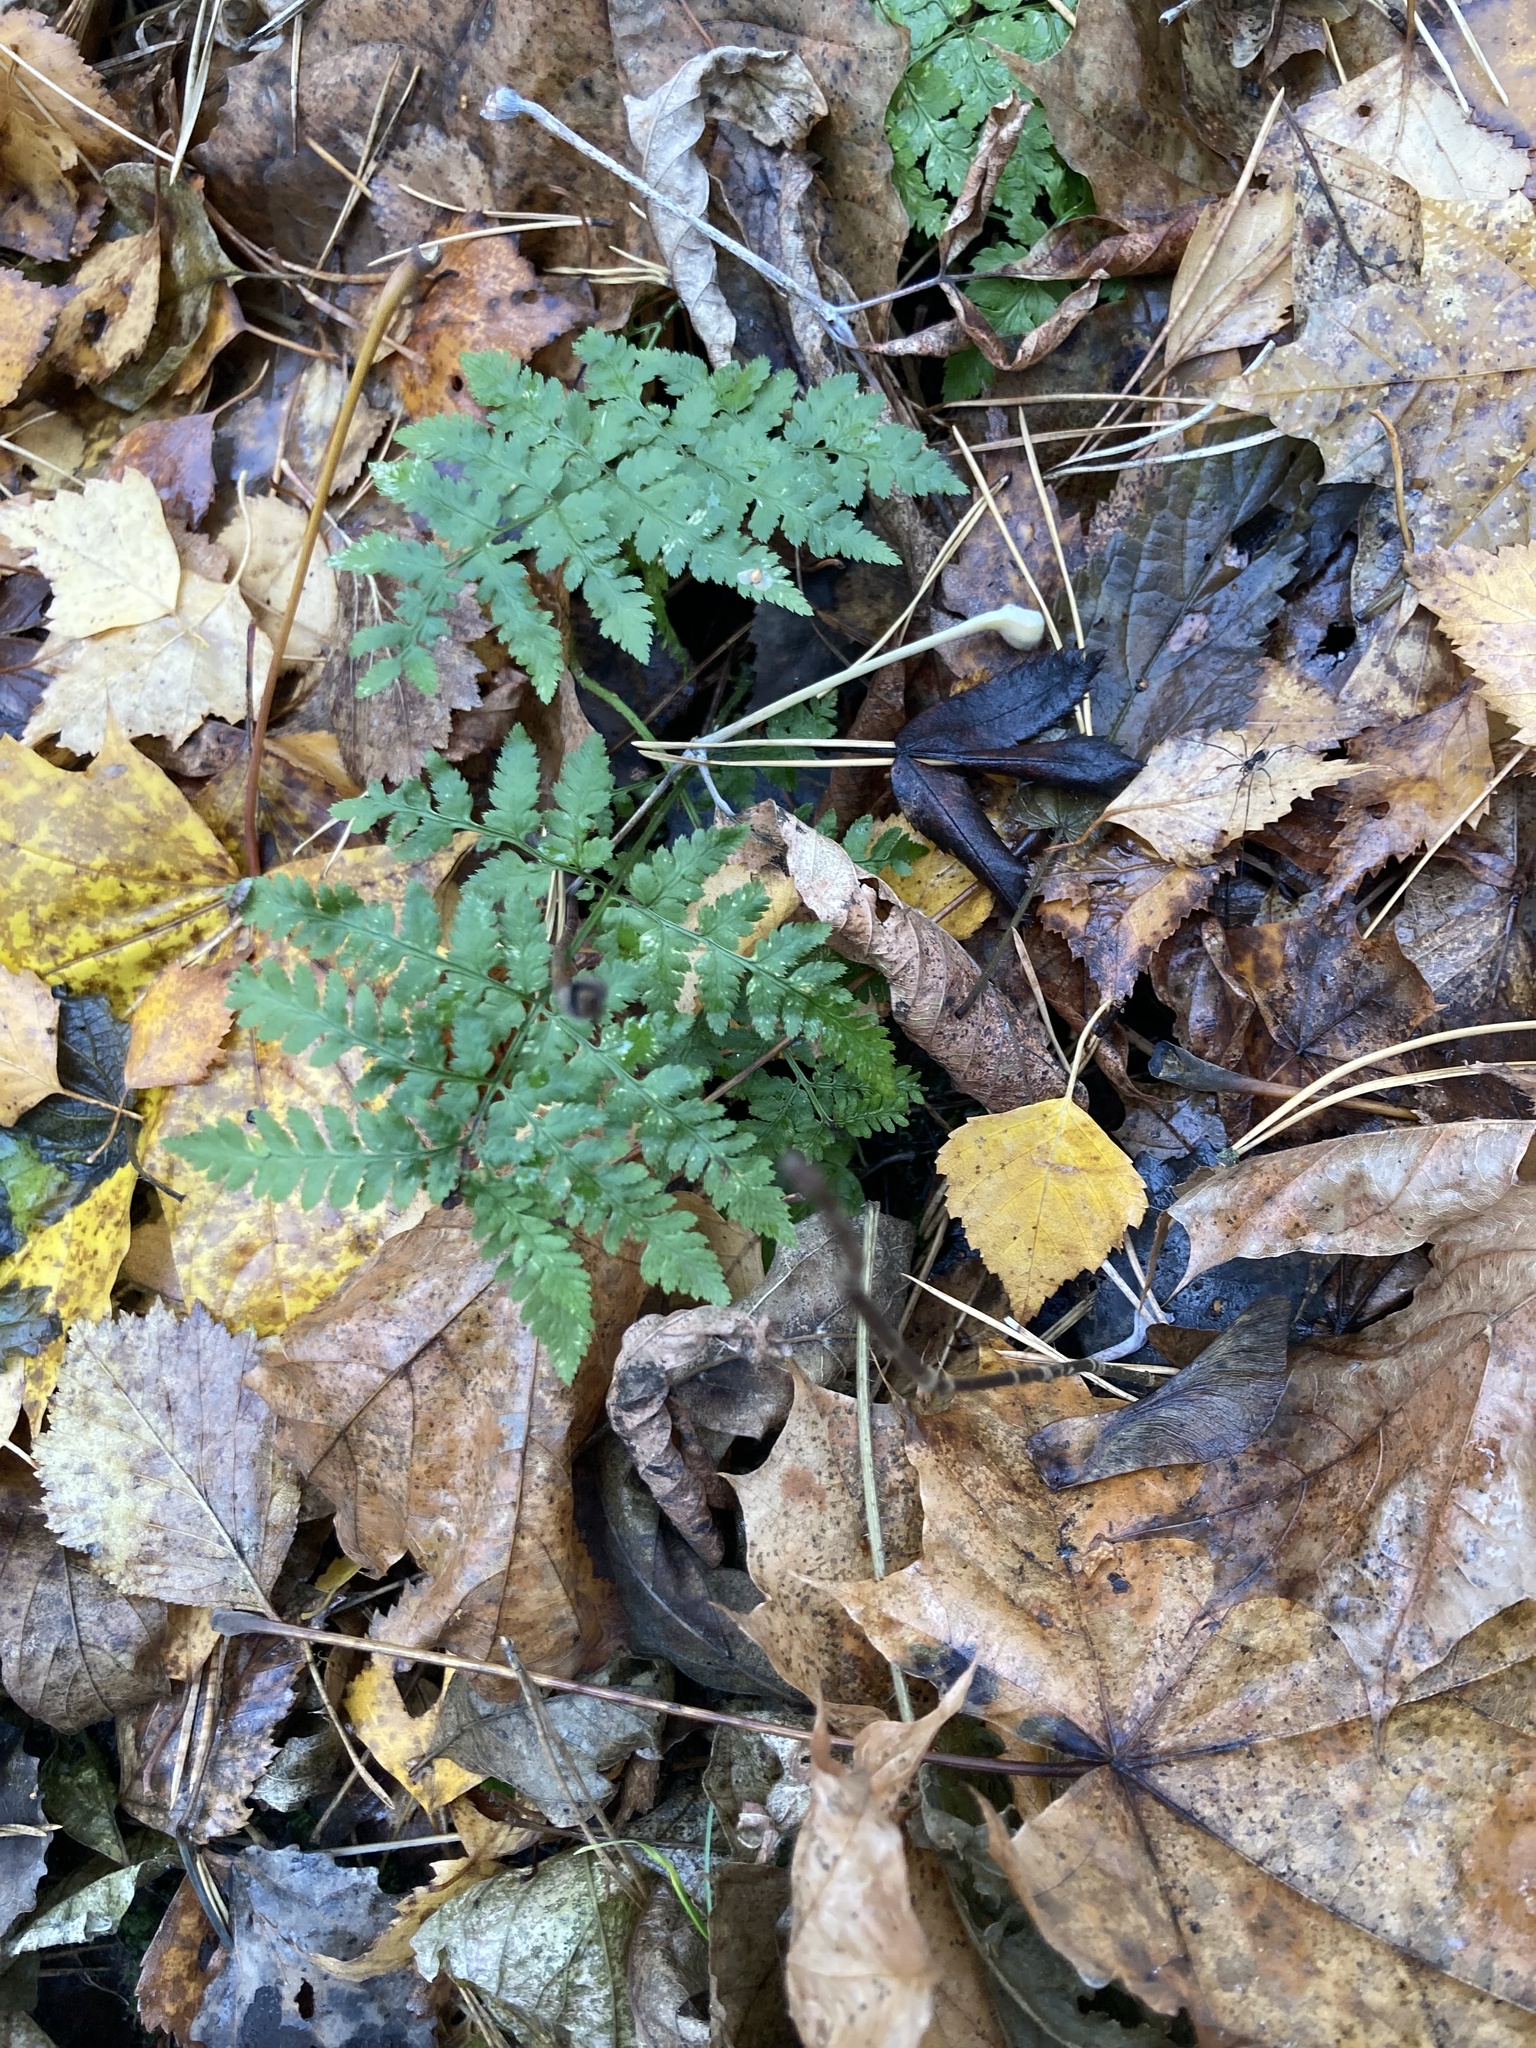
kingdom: Plantae
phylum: Tracheophyta
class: Polypodiopsida
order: Polypodiales
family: Dryopteridaceae
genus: Dryopteris
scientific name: Dryopteris filix-mas
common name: Male fern
